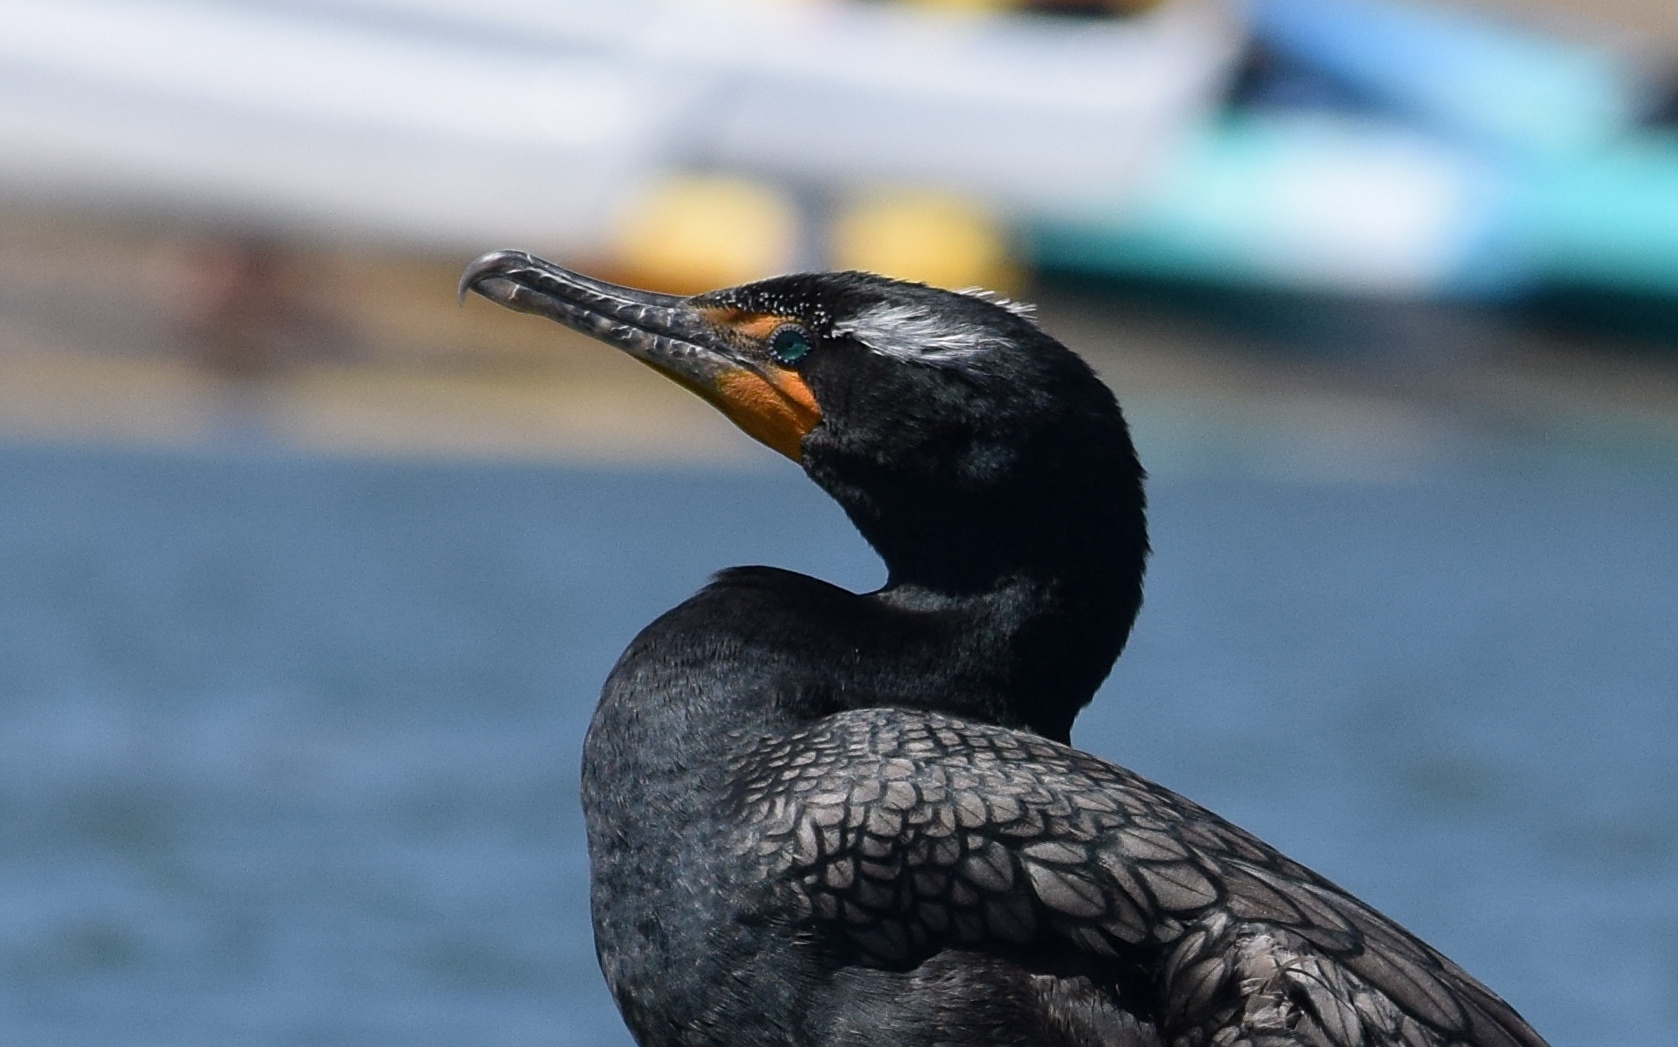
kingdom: Animalia
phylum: Chordata
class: Aves
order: Suliformes
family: Phalacrocoracidae
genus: Phalacrocorax
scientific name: Phalacrocorax auritus
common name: Double-crested cormorant
